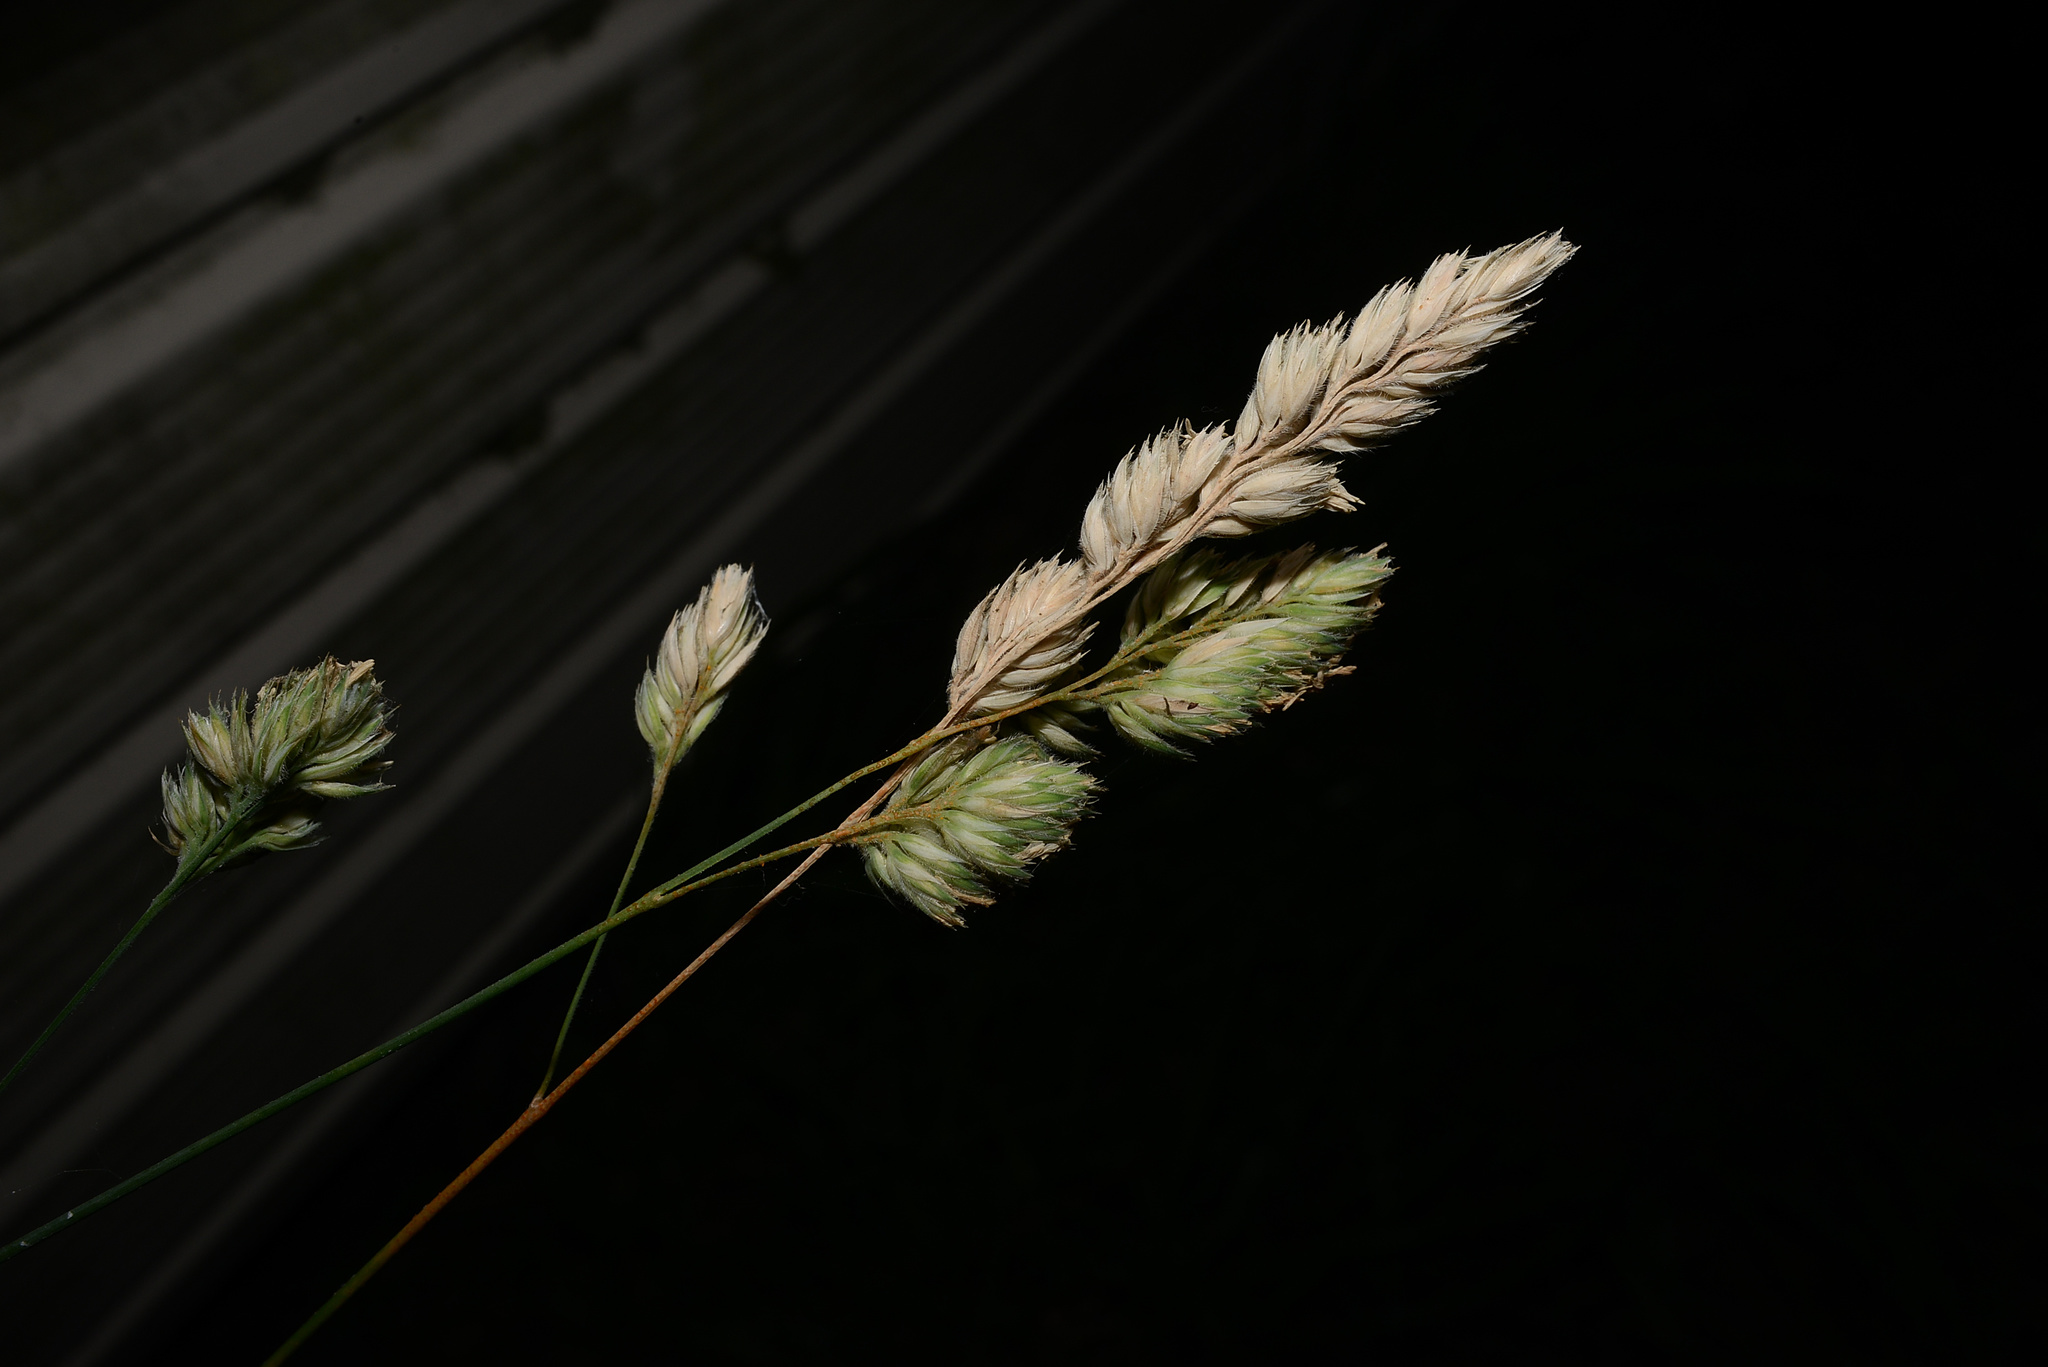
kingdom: Plantae
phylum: Tracheophyta
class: Liliopsida
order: Poales
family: Poaceae
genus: Dactylis
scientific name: Dactylis glomerata
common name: Orchardgrass
